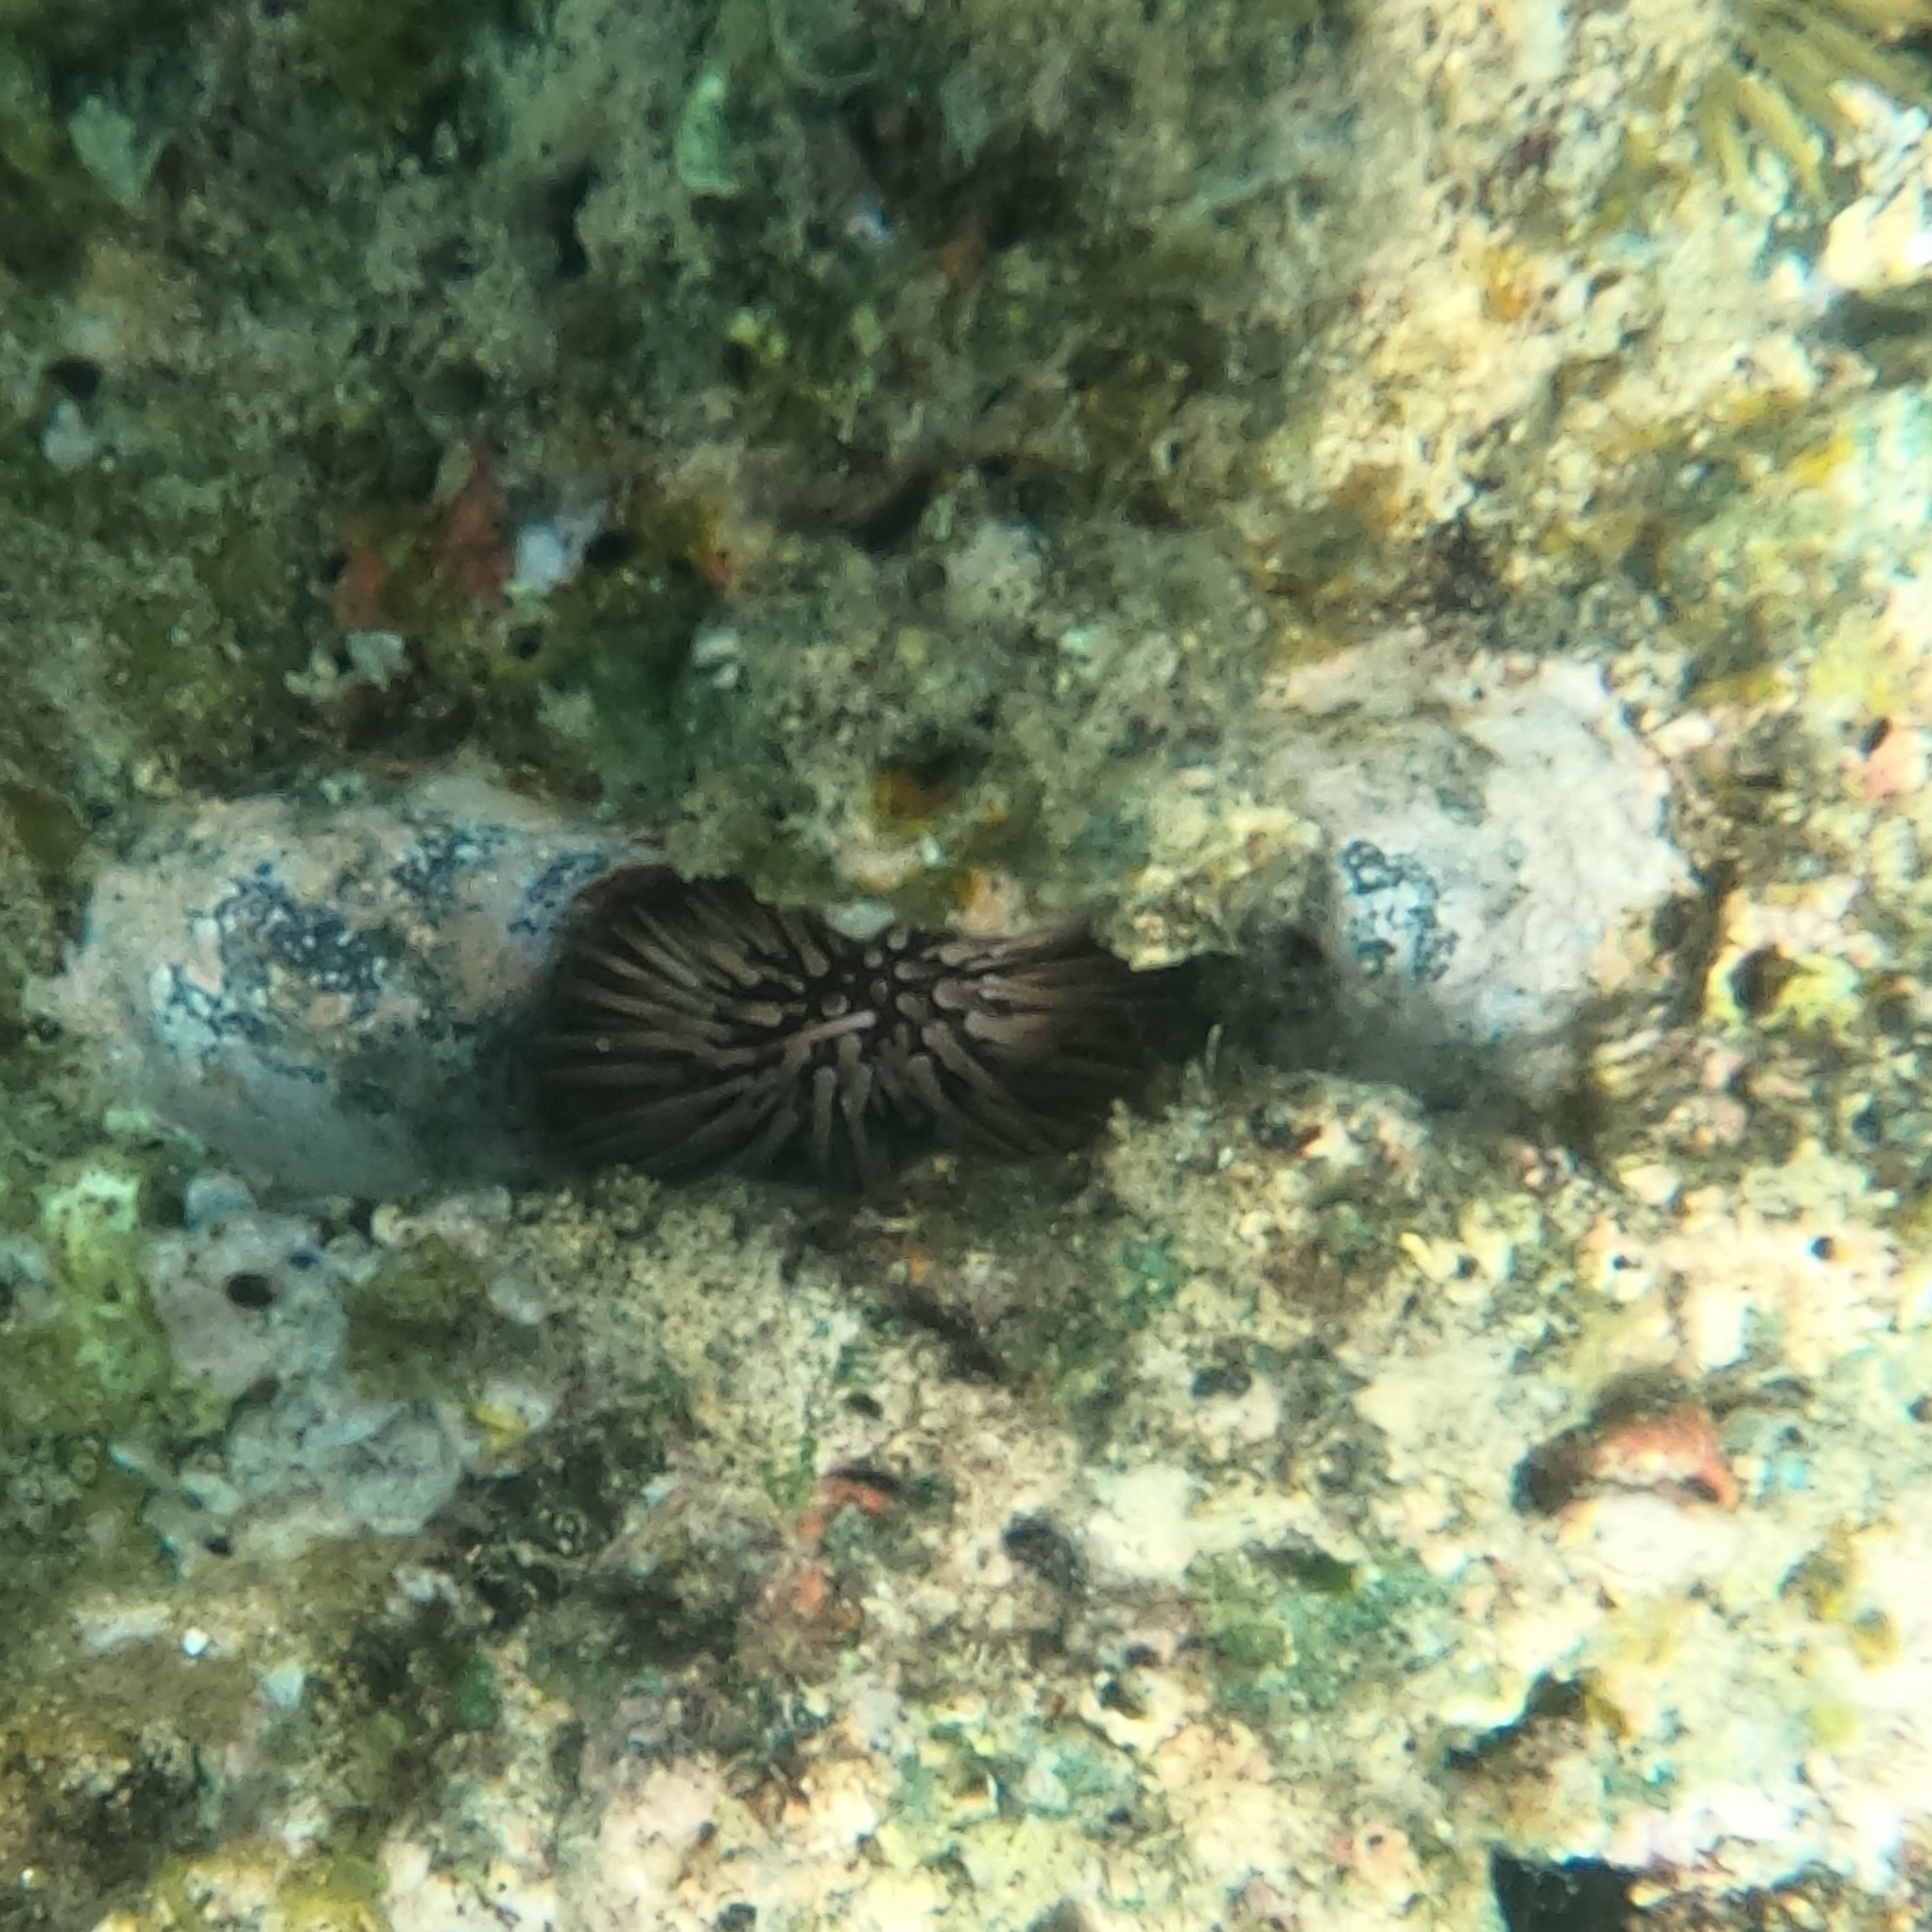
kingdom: Animalia
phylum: Echinodermata
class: Echinoidea
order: Camarodonta
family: Echinometridae
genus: Echinometra
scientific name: Echinometra mathaei
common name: Rock-boring urchin
